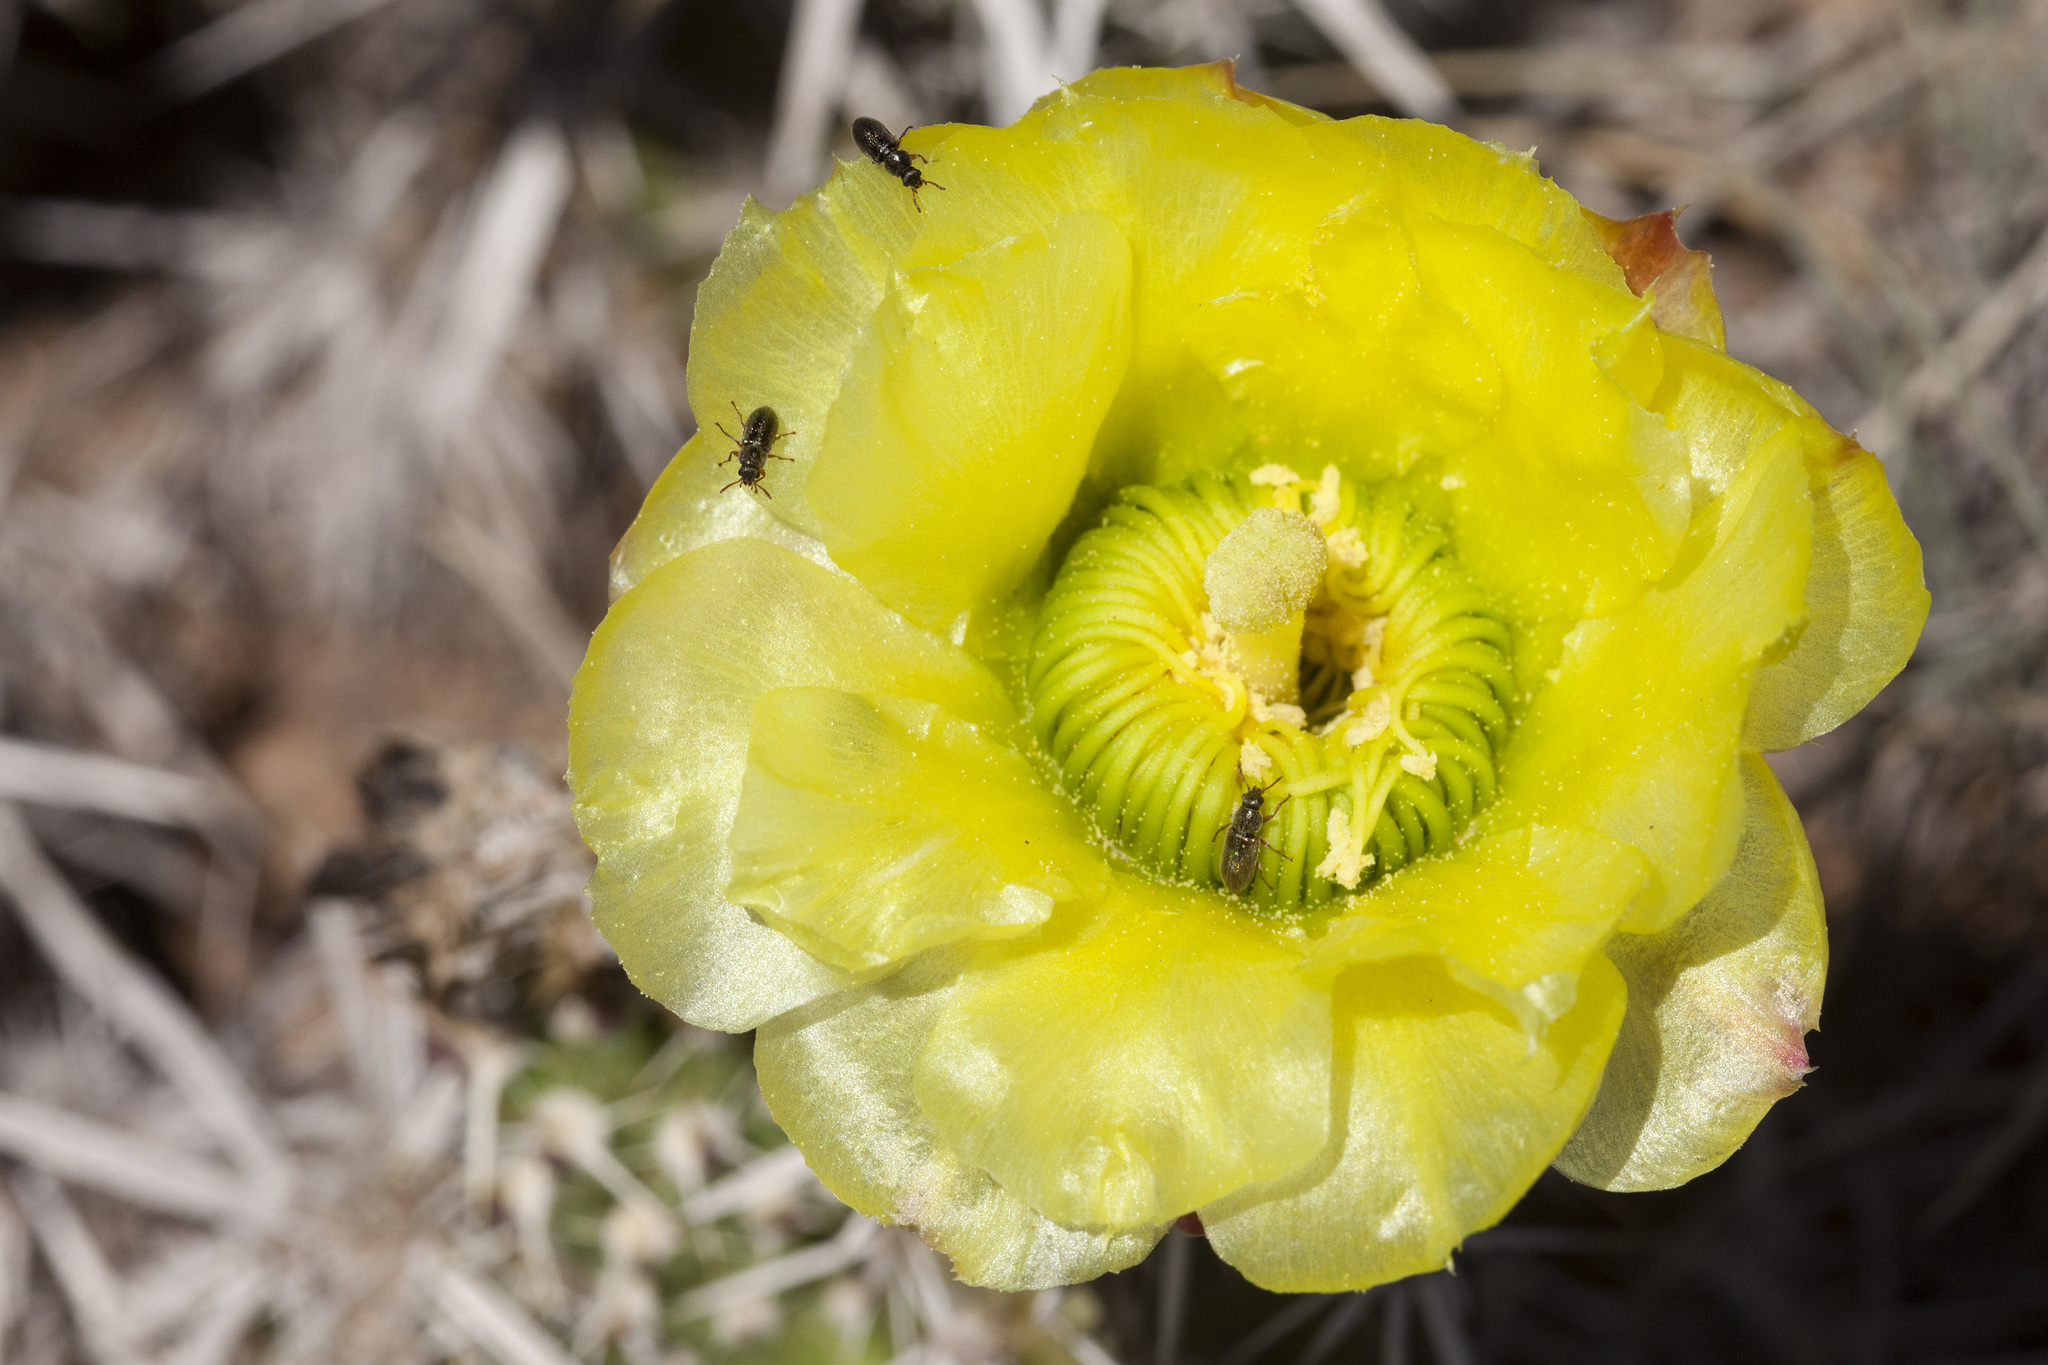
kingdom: Plantae
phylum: Tracheophyta
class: Magnoliopsida
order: Caryophyllales
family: Cactaceae
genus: Grusonia
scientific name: Grusonia clavata
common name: Club cholla
